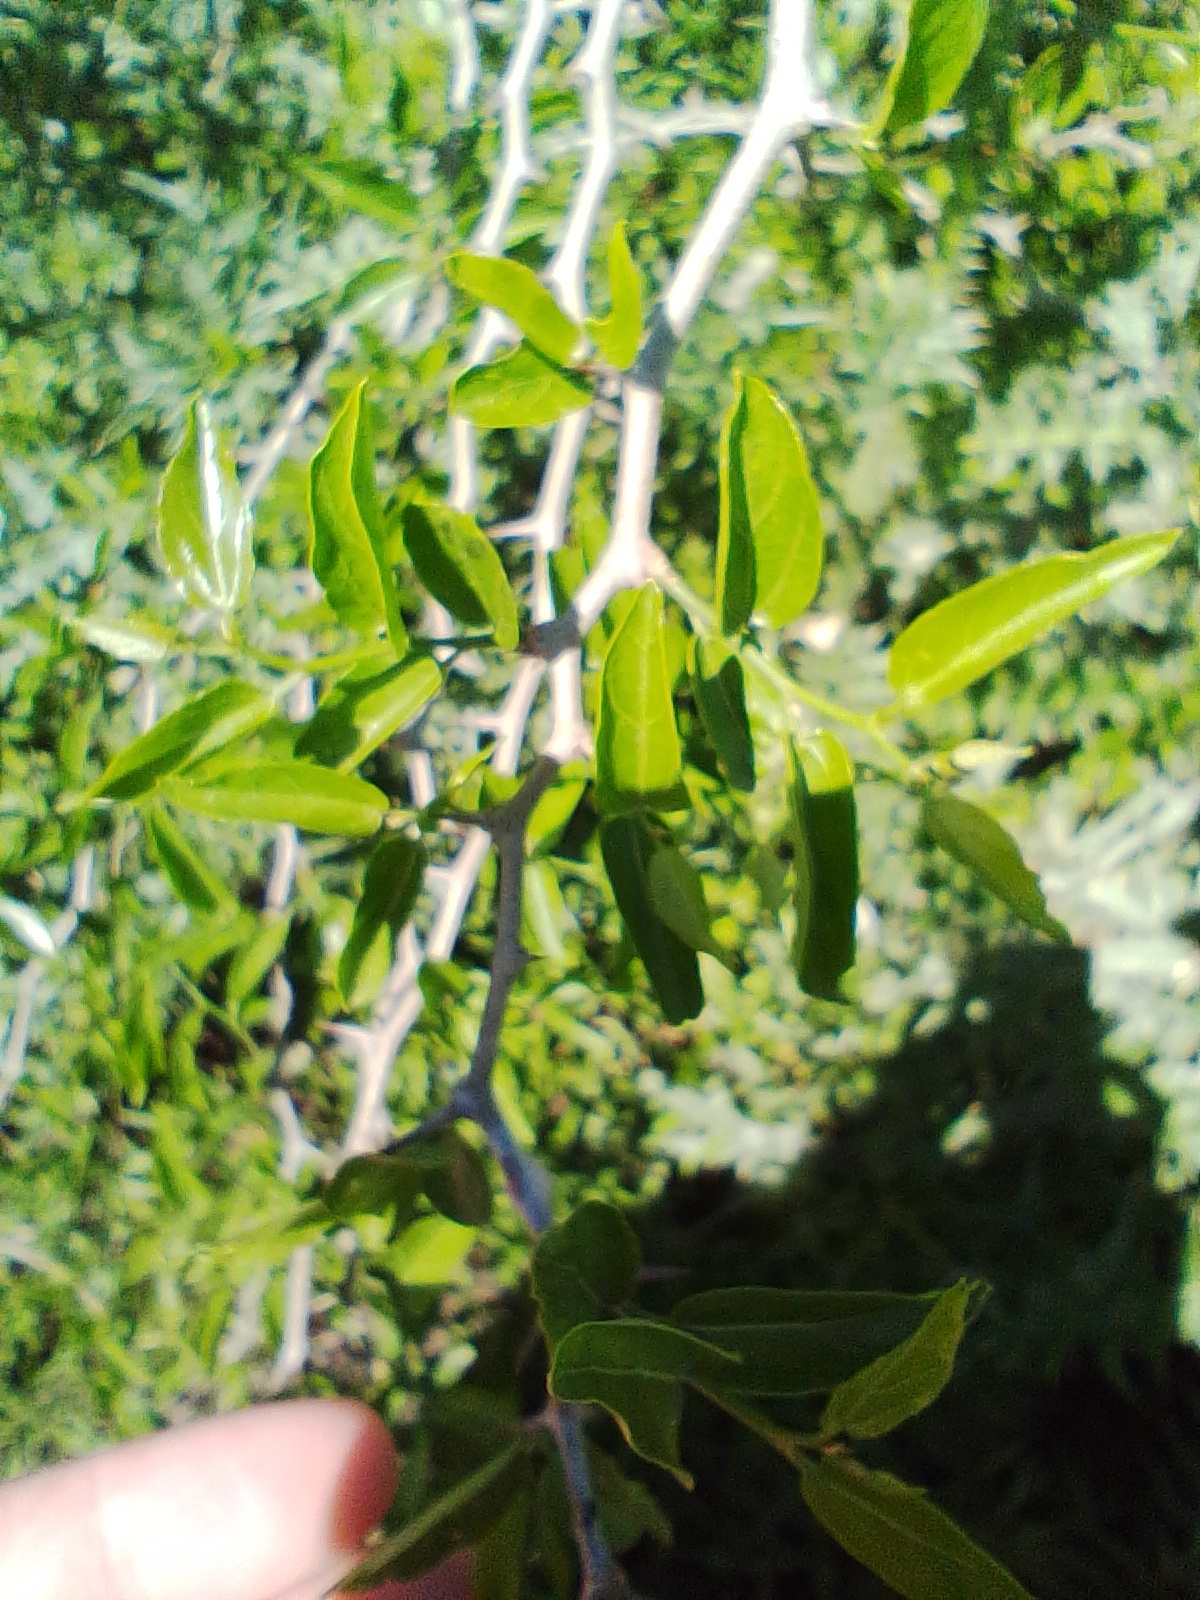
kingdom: Plantae
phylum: Tracheophyta
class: Magnoliopsida
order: Rosales
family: Cannabaceae
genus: Celtis
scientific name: Celtis tala
